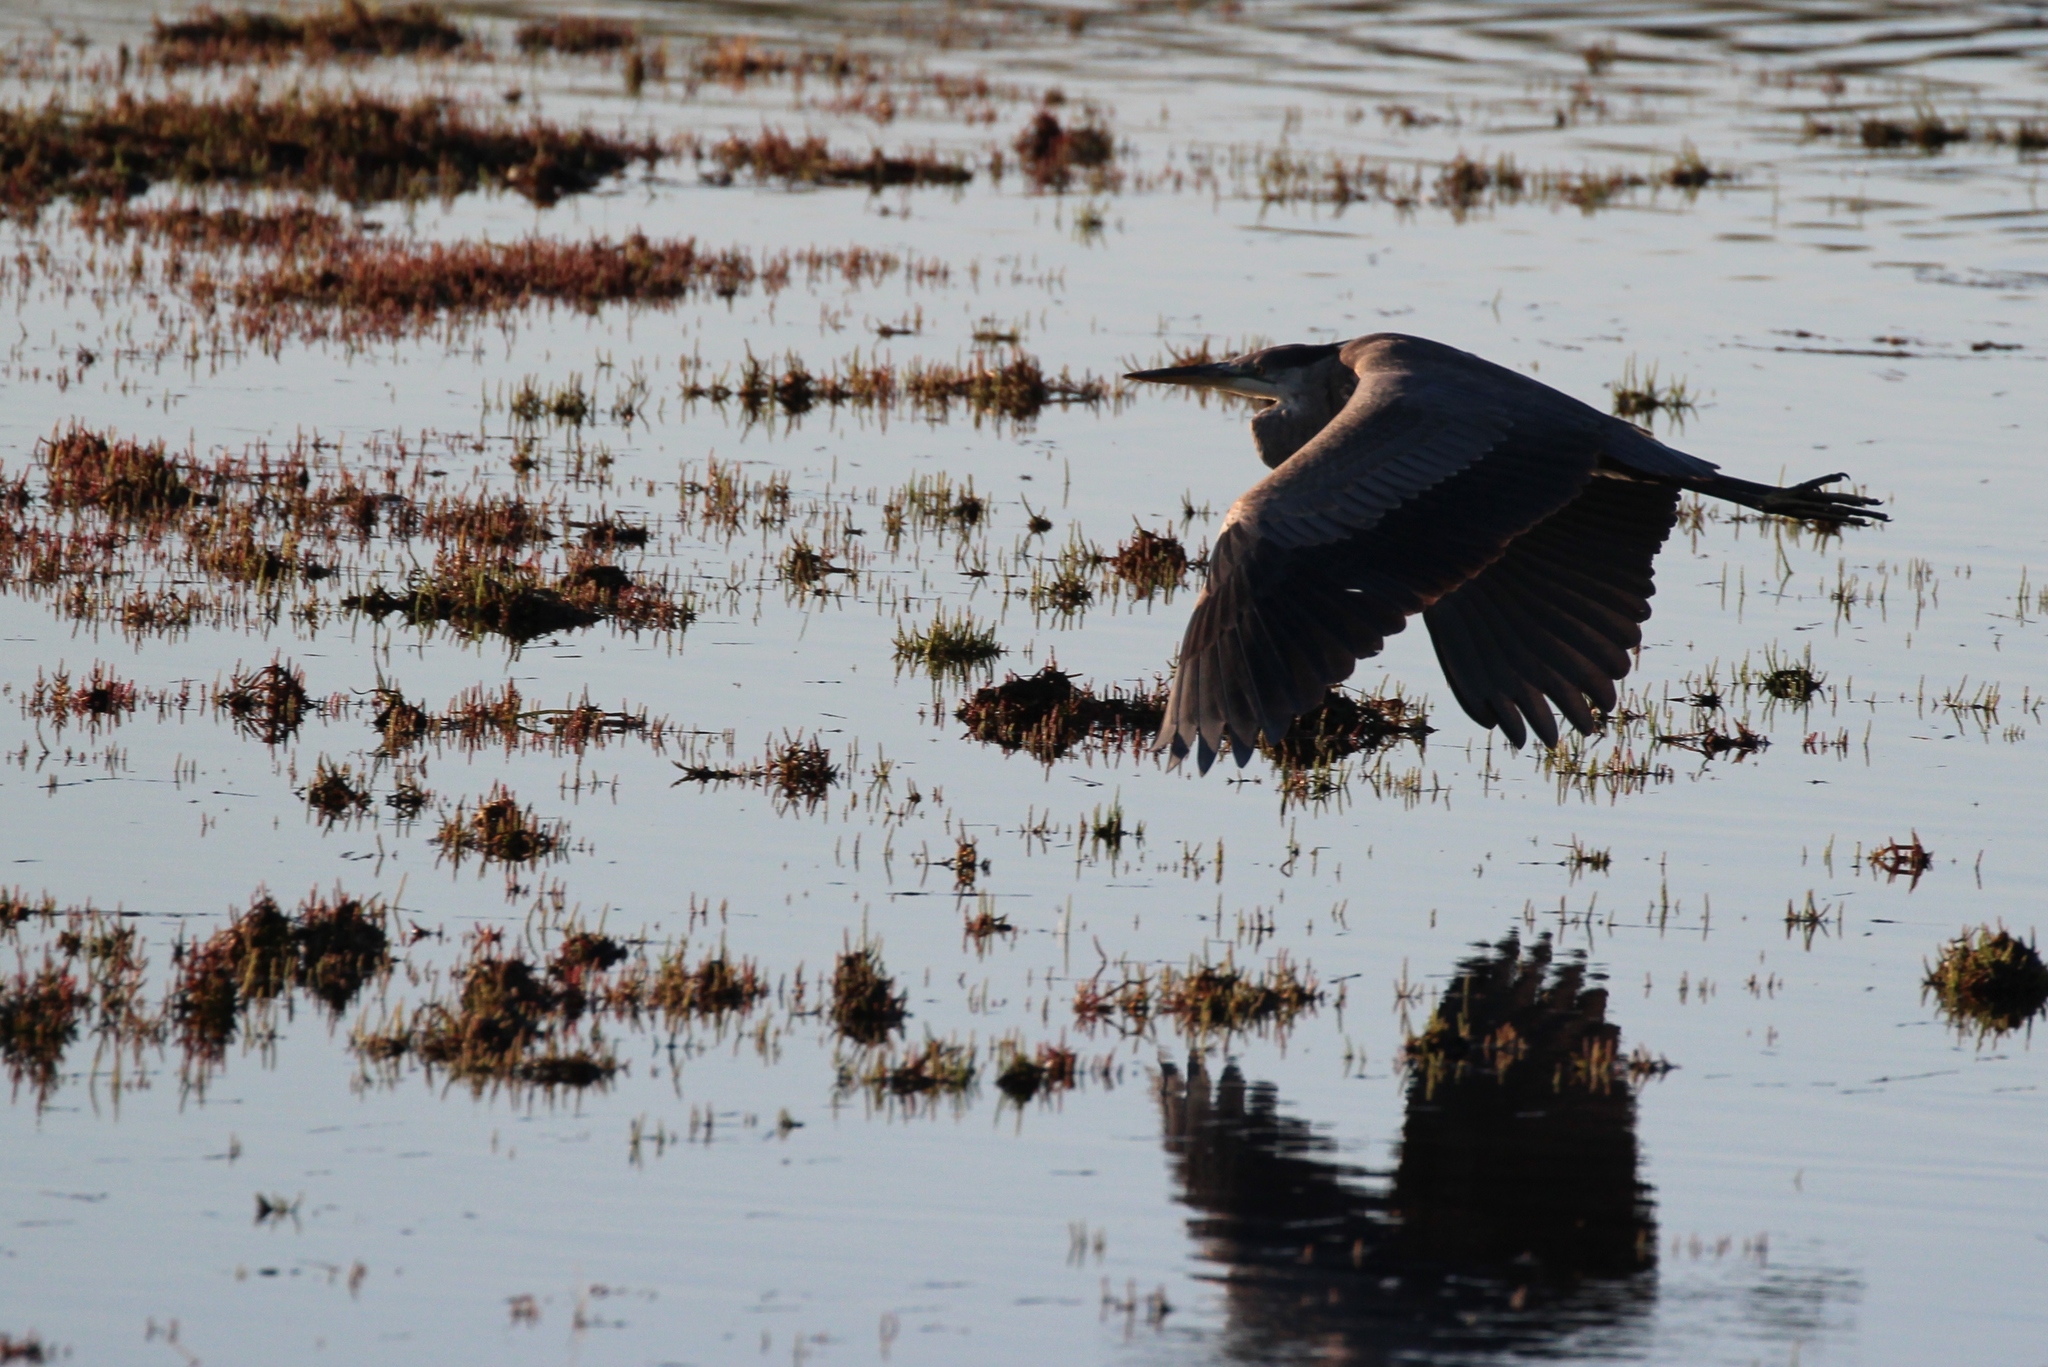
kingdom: Animalia
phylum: Chordata
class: Aves
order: Pelecaniformes
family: Ardeidae
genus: Ardea
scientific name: Ardea herodias
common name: Great blue heron
